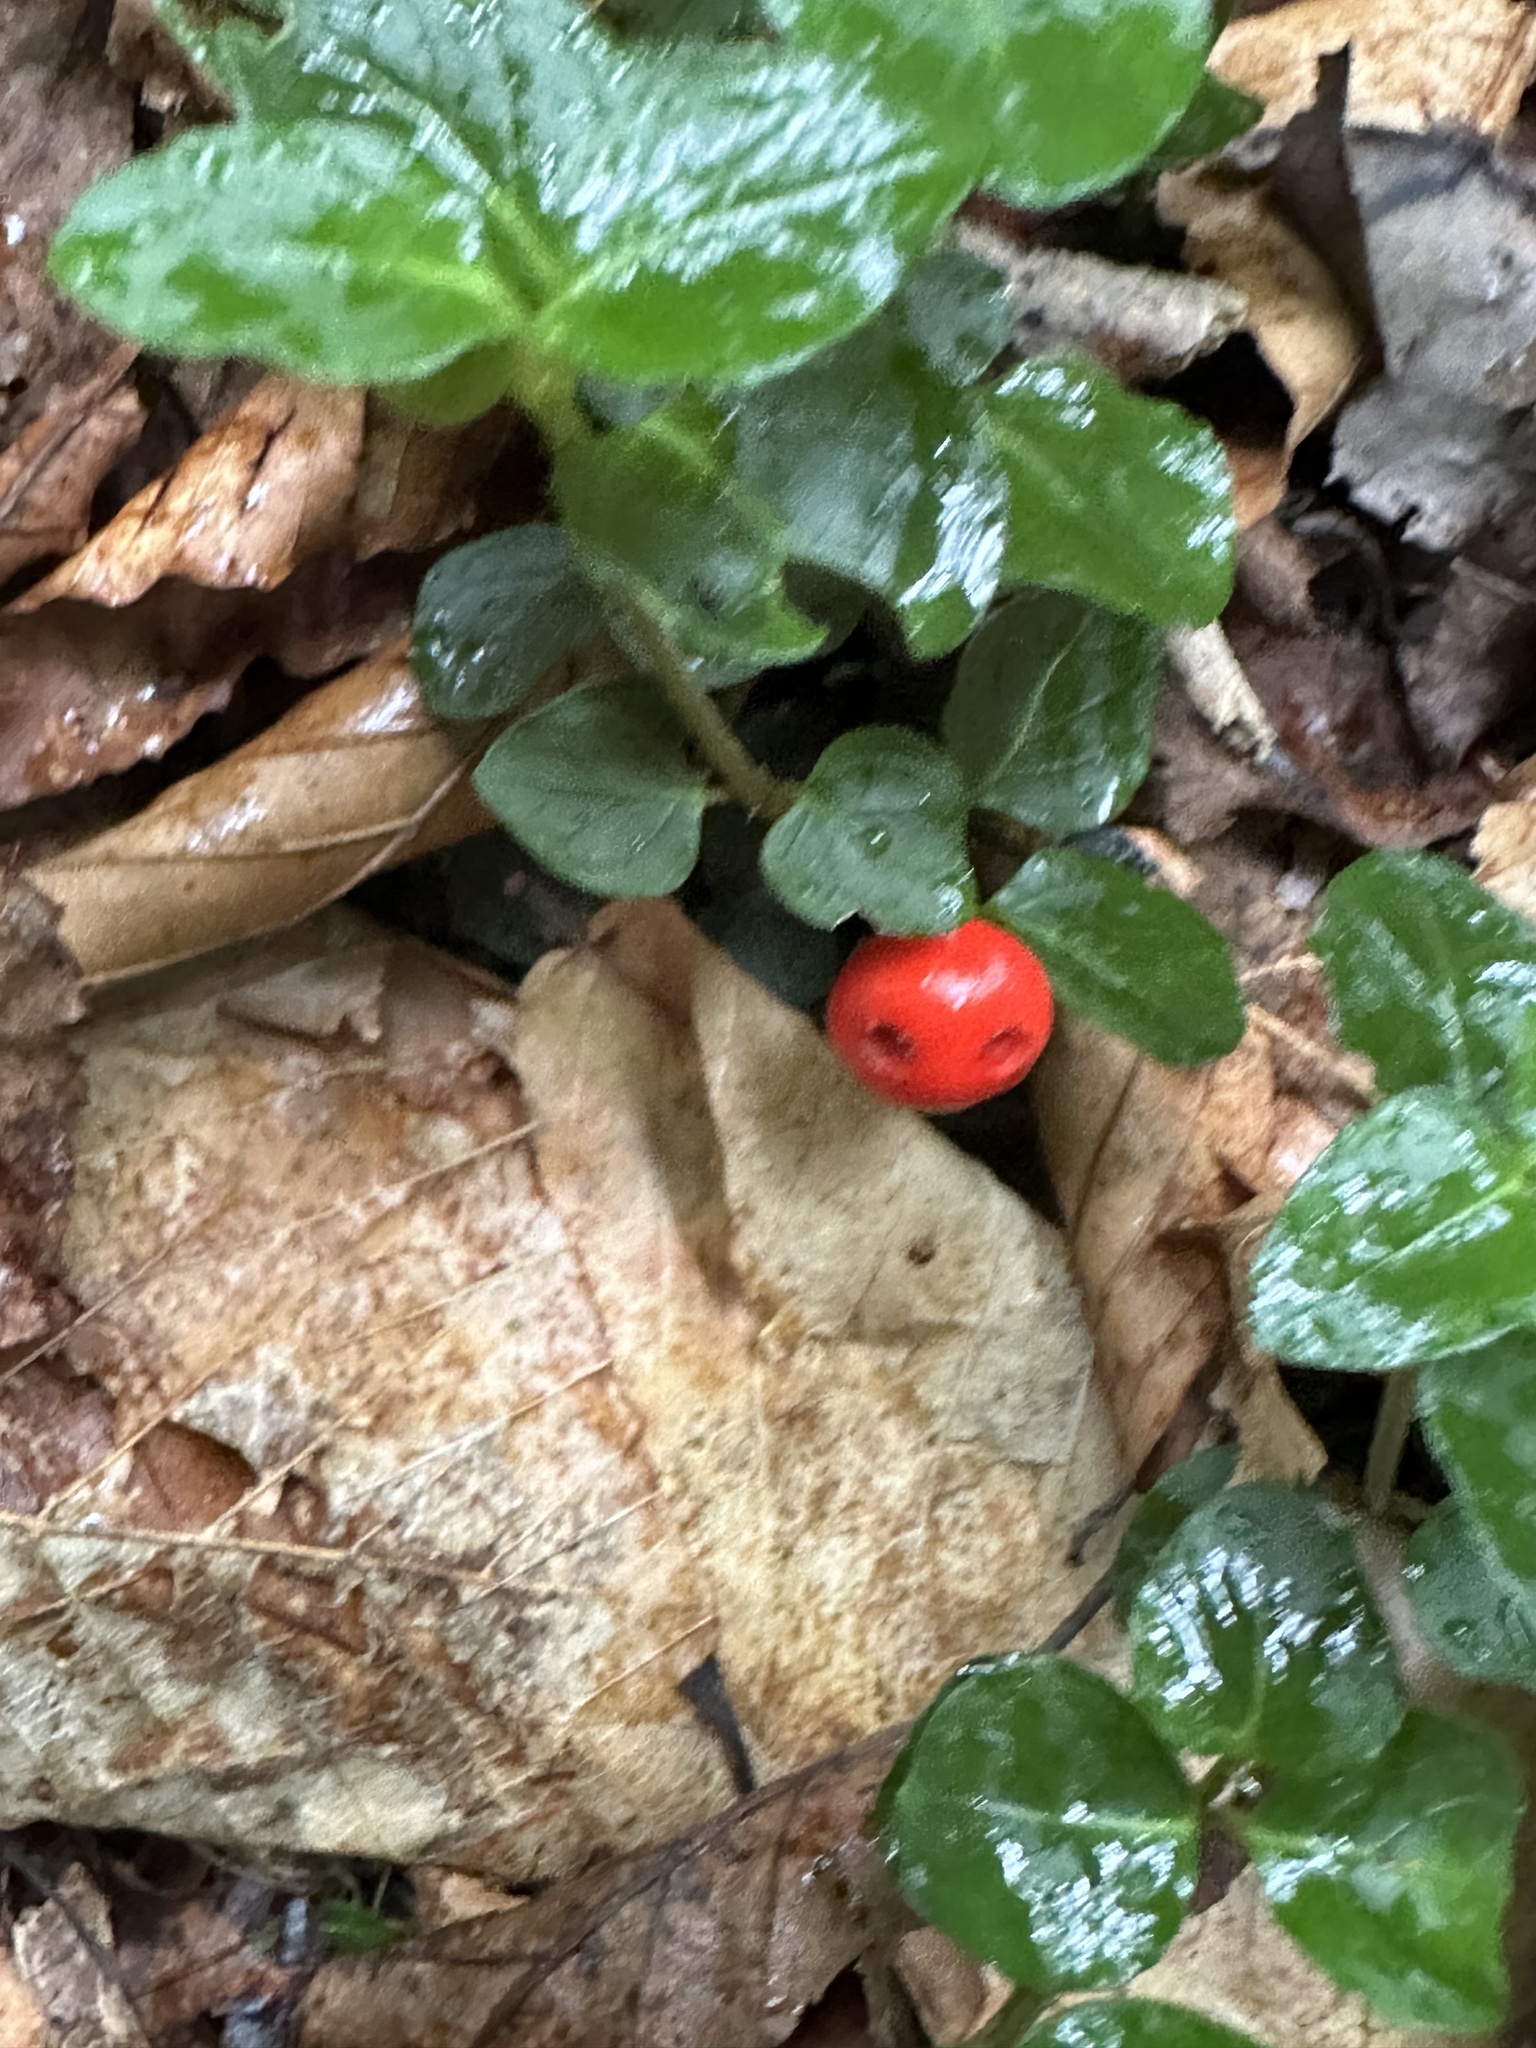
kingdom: Plantae
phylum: Tracheophyta
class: Magnoliopsida
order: Gentianales
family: Rubiaceae
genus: Mitchella
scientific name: Mitchella repens
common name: Partridge-berry
